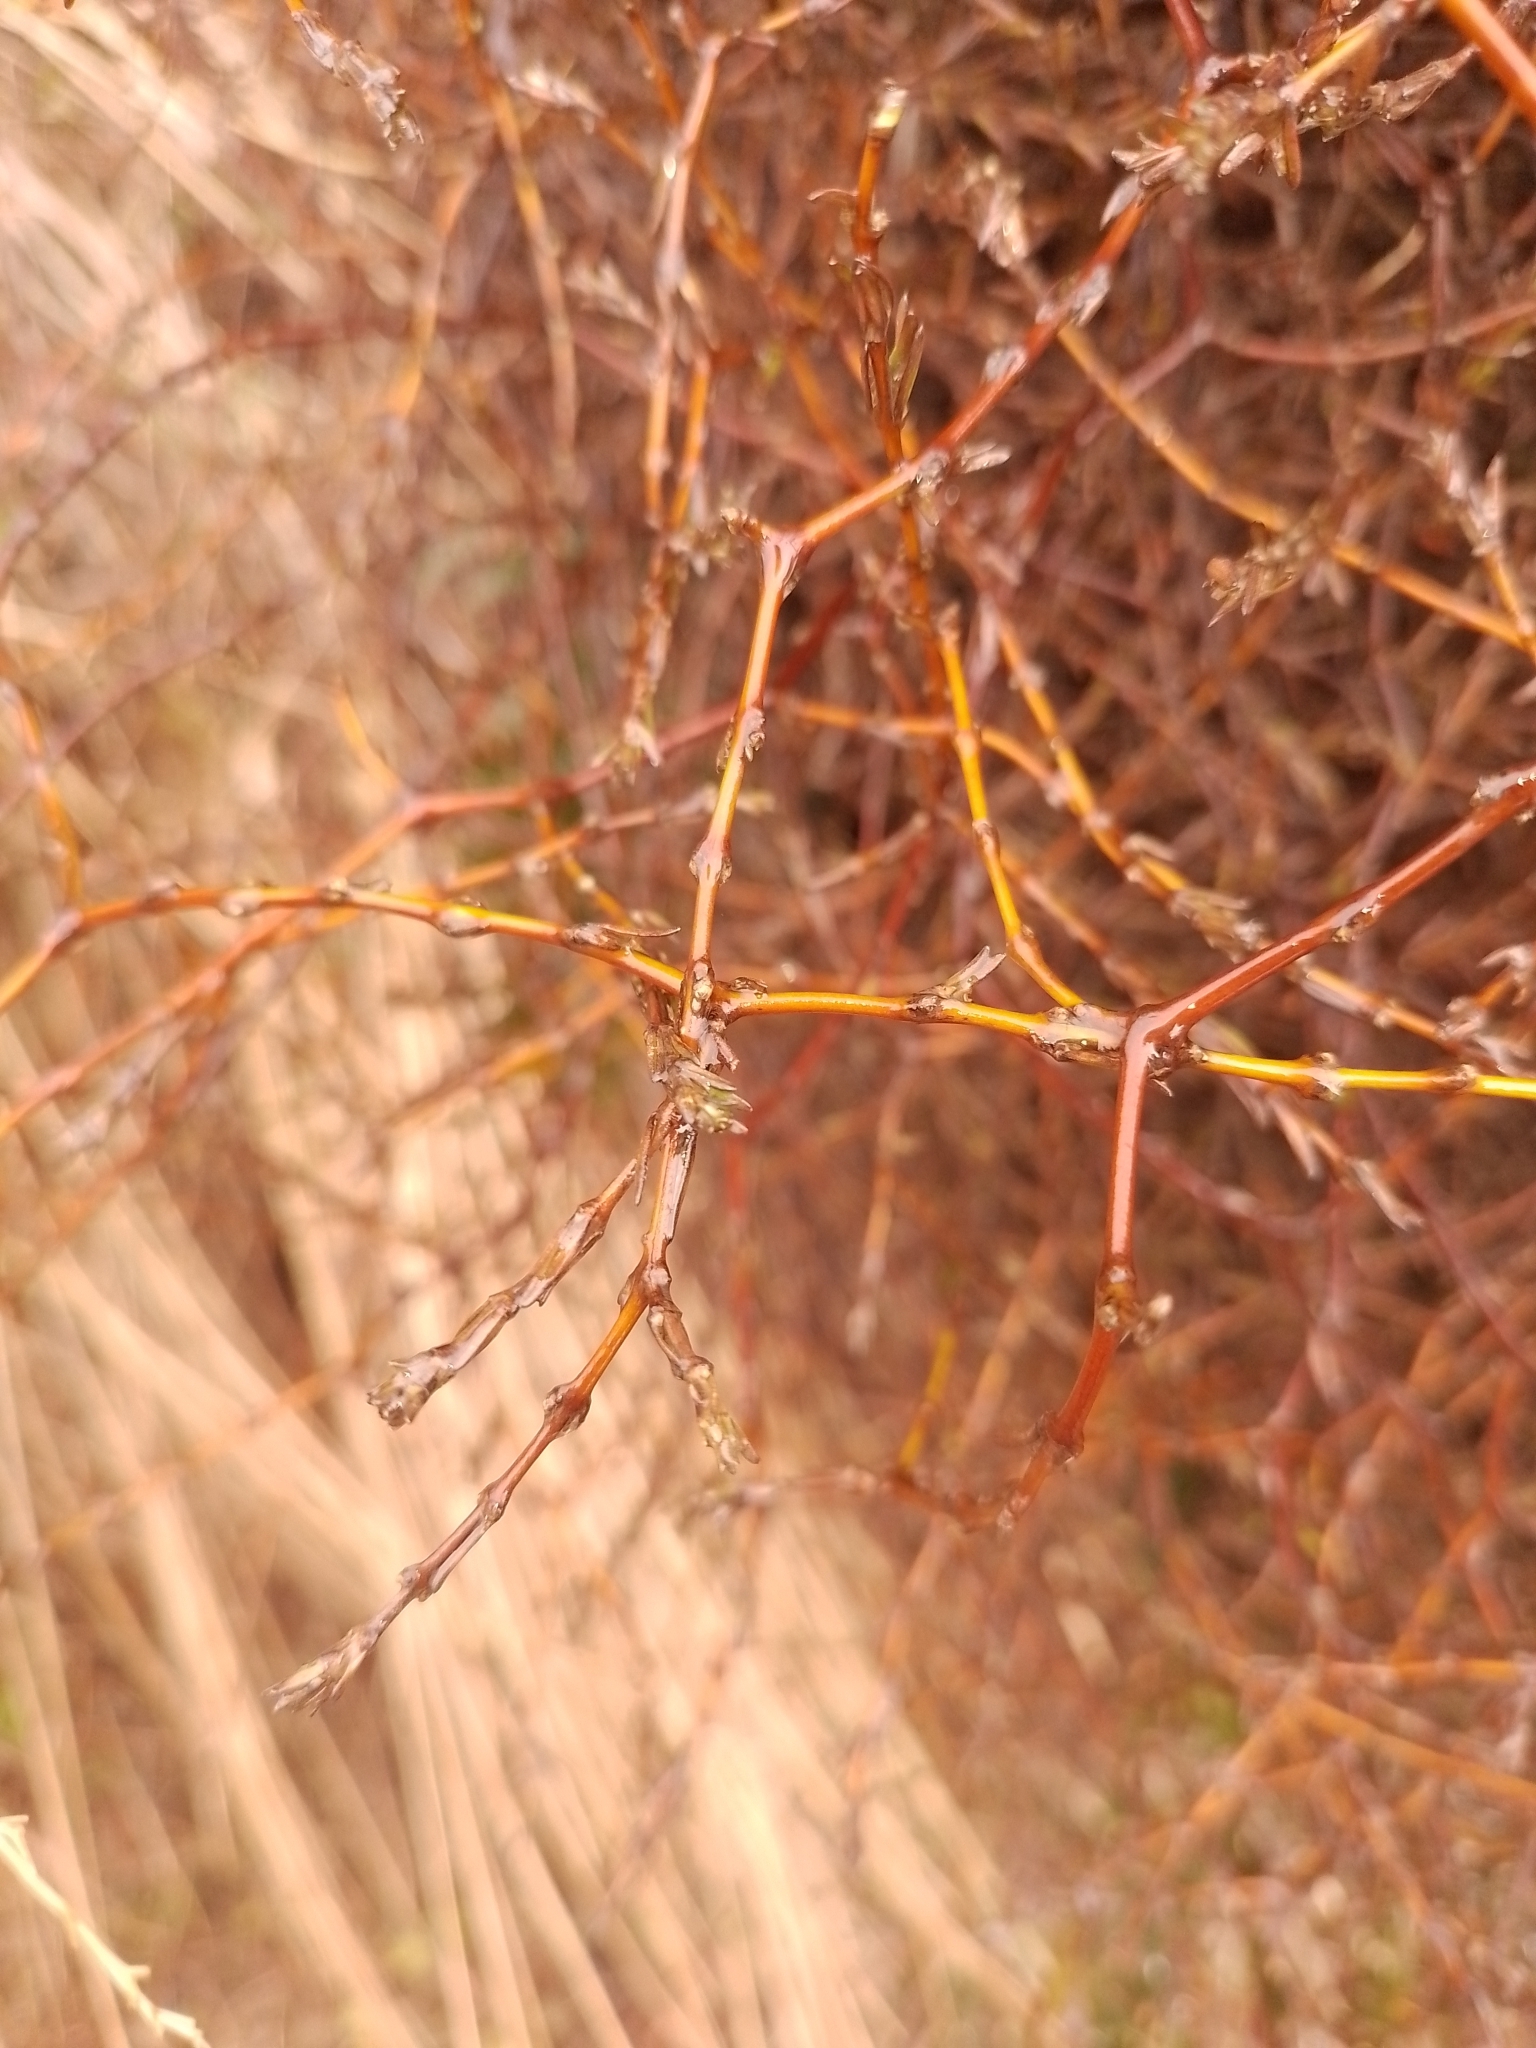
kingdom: Plantae
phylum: Tracheophyta
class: Magnoliopsida
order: Gentianales
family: Rubiaceae
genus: Coprosma
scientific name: Coprosma acerosa
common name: Sand coprosma
